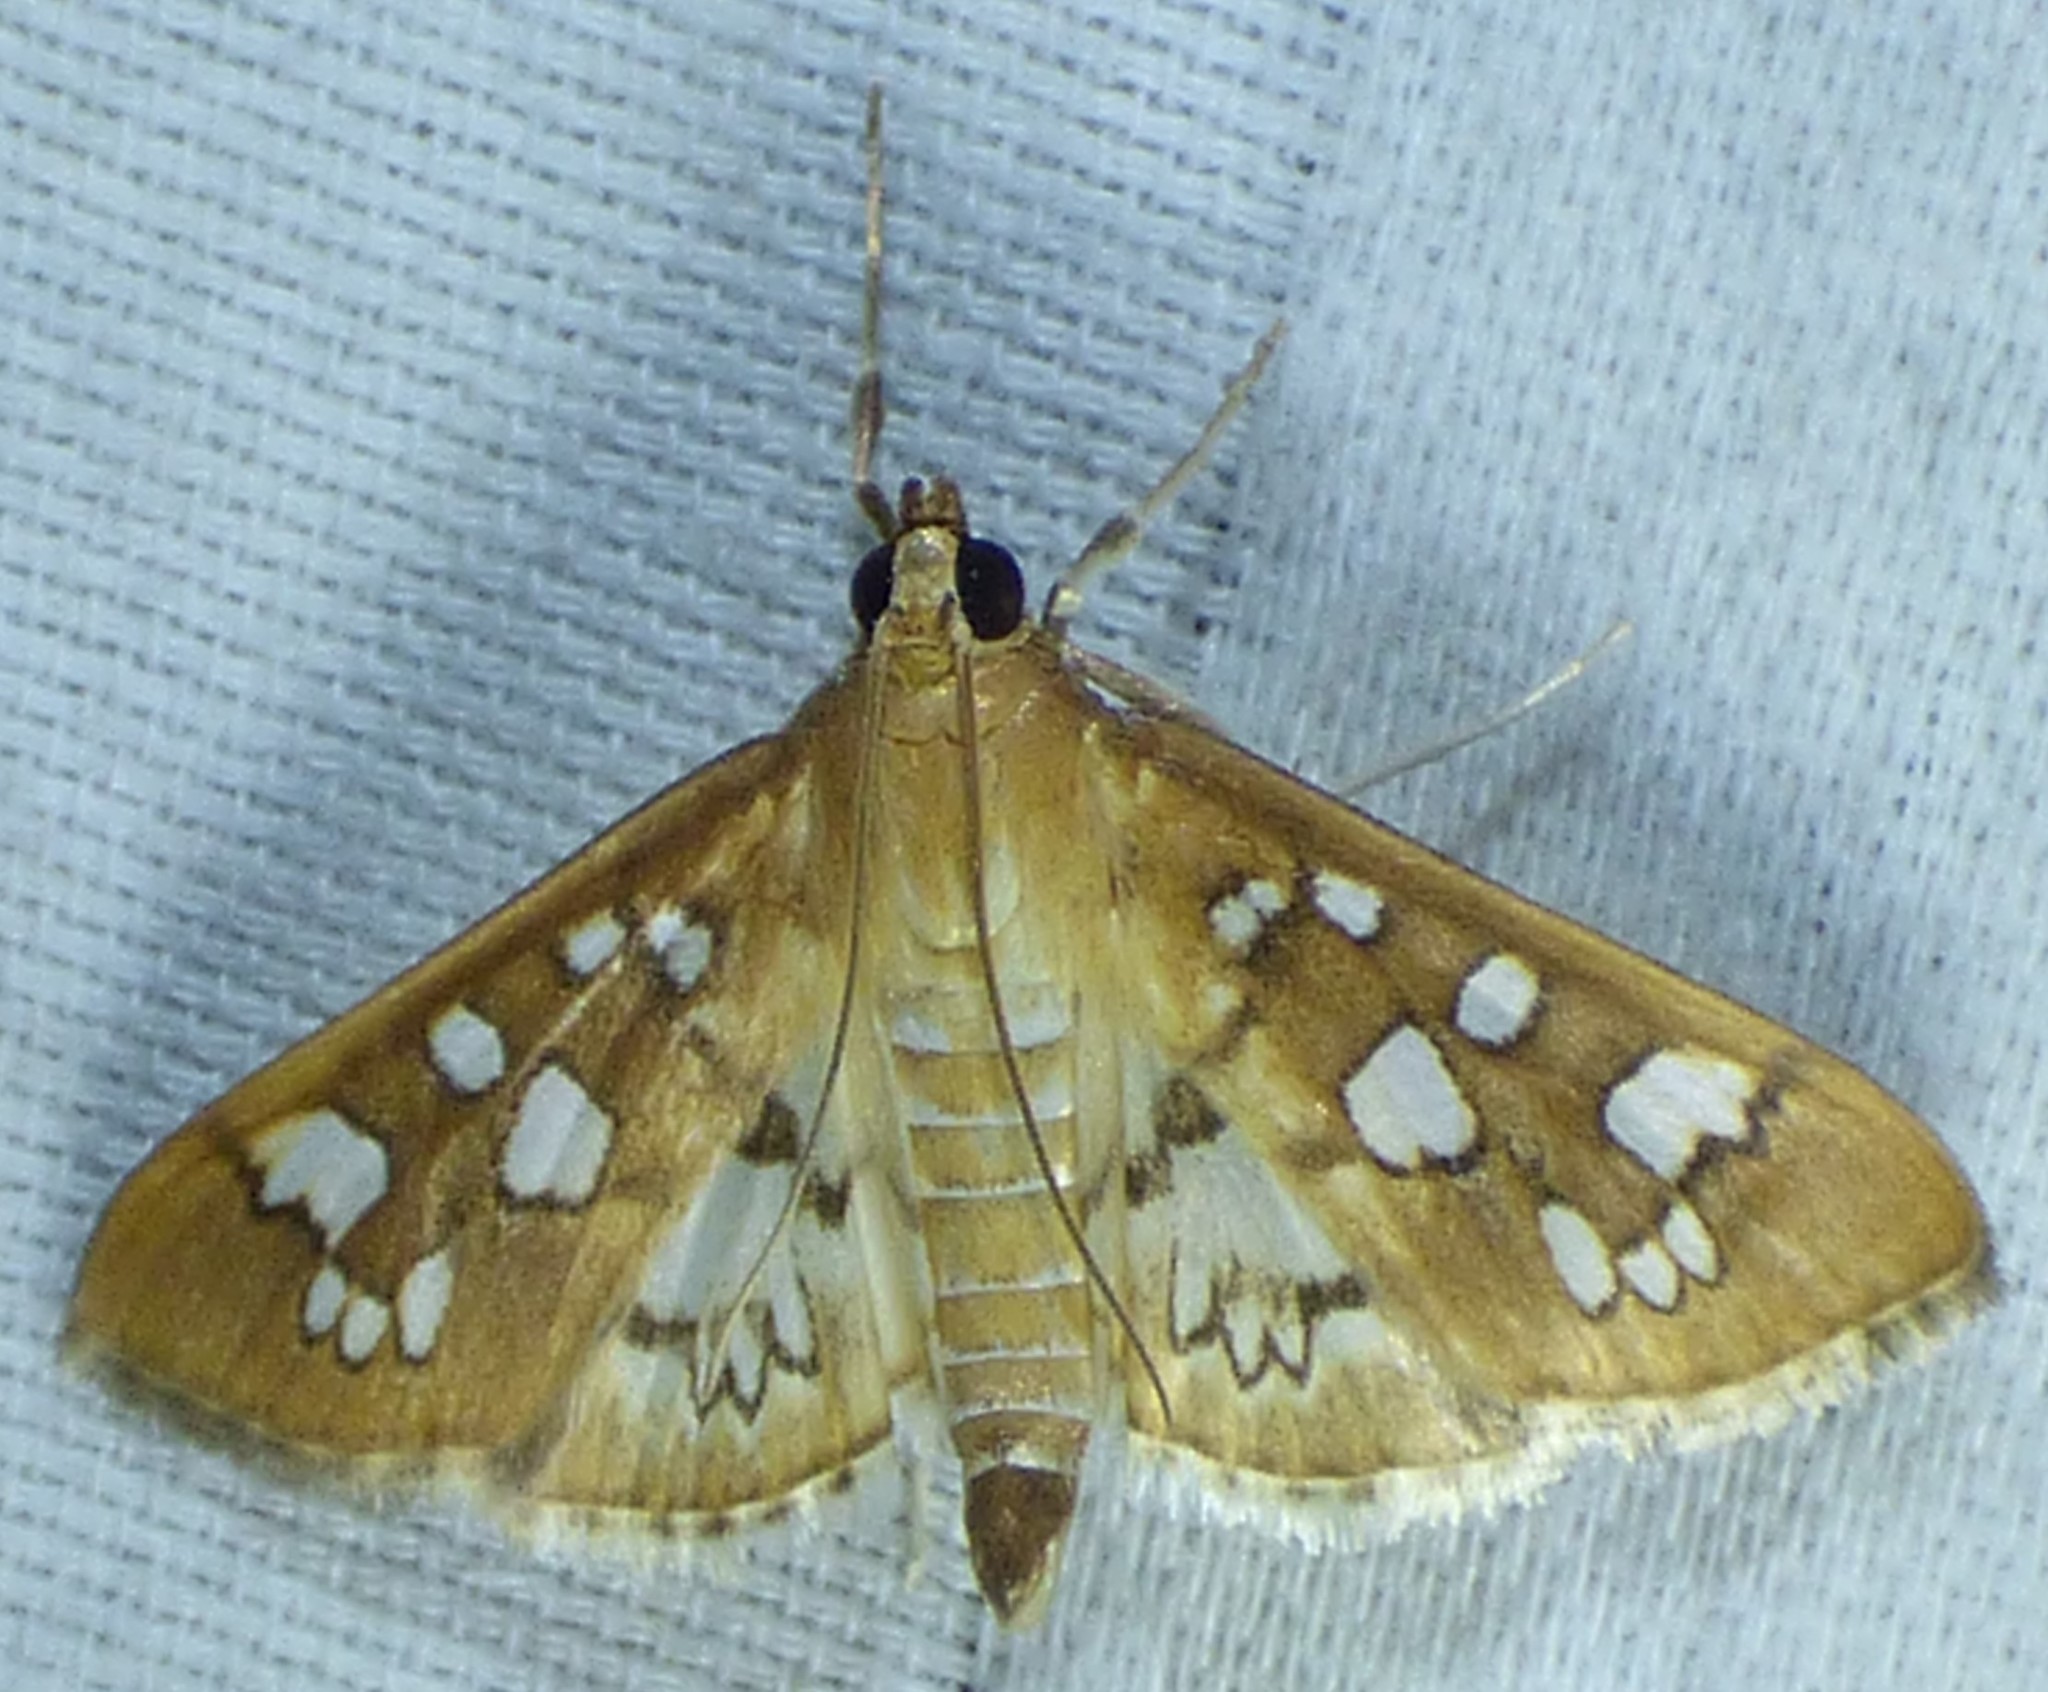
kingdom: Animalia
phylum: Arthropoda
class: Insecta
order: Lepidoptera
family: Crambidae
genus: Samea
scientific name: Samea baccatalis
